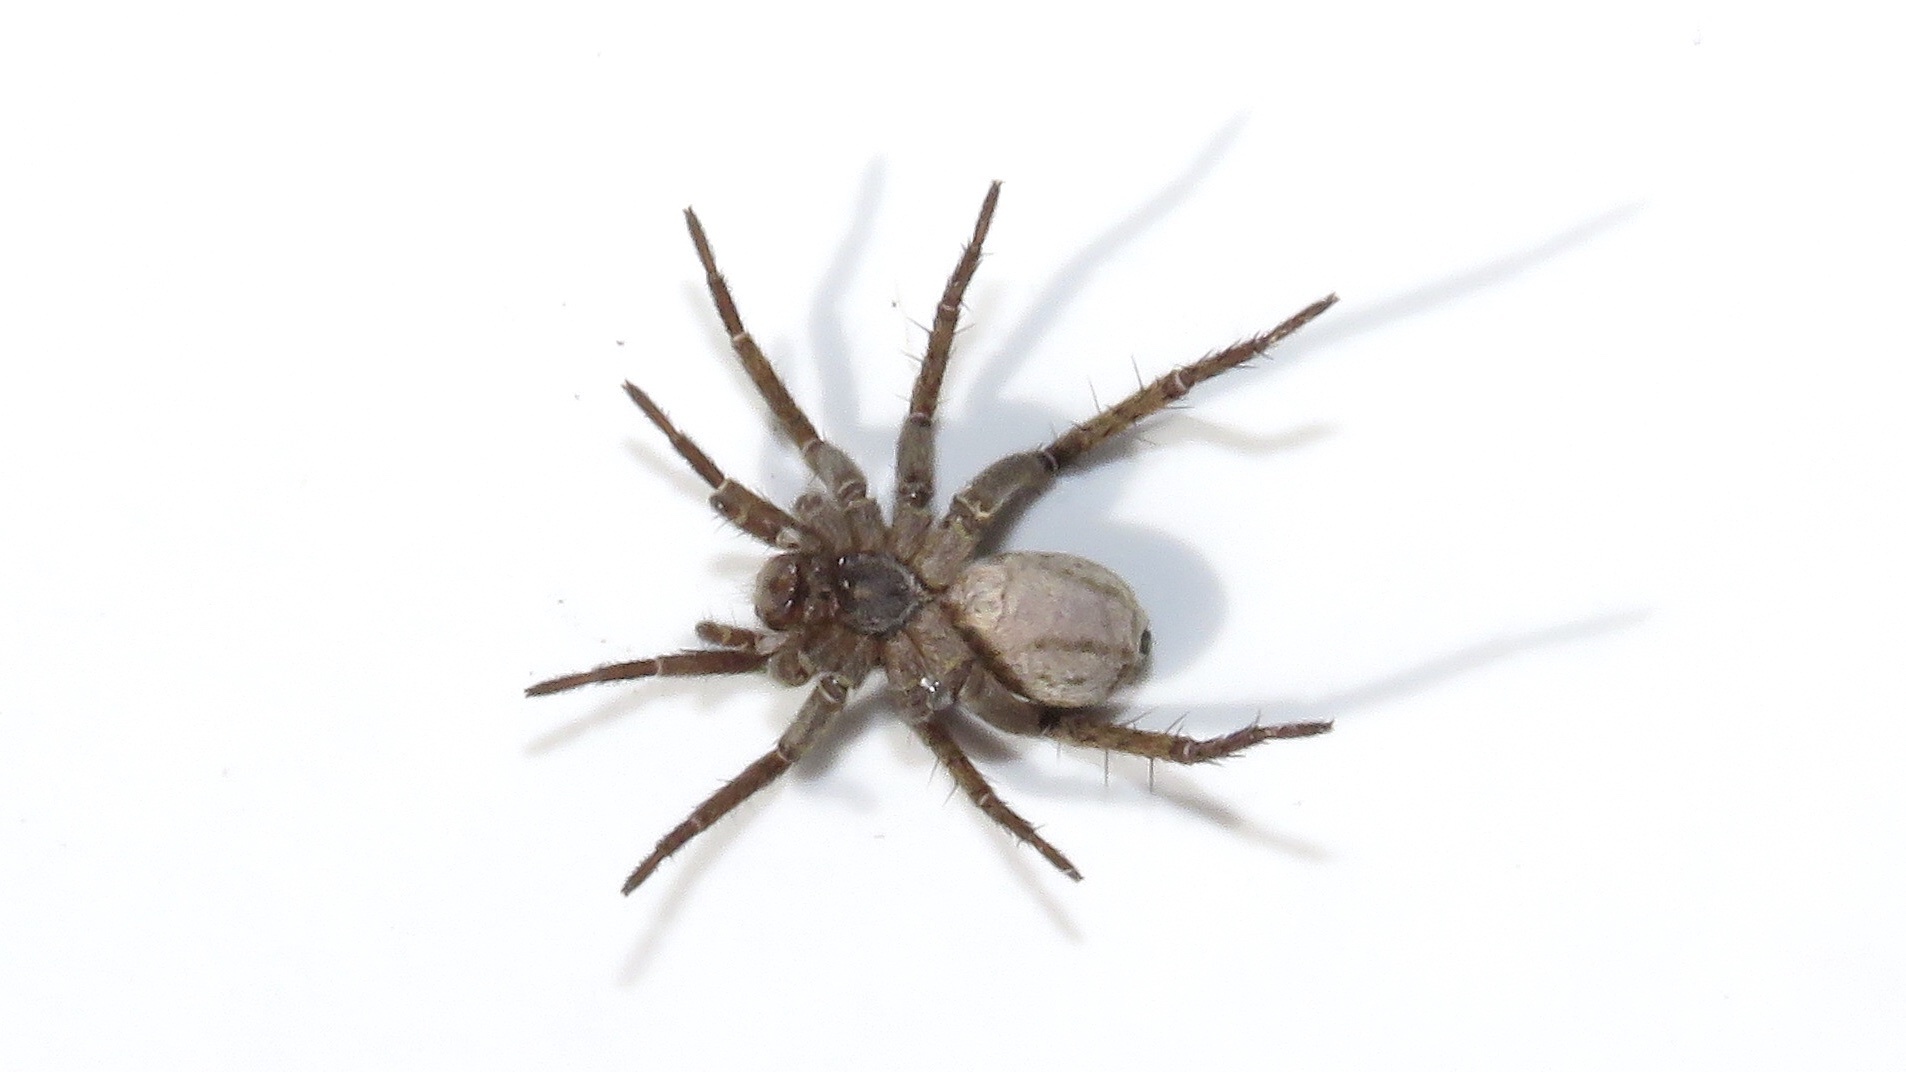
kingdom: Animalia
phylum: Arthropoda
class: Arachnida
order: Araneae
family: Lycosidae
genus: Pardosa
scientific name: Pardosa modica
